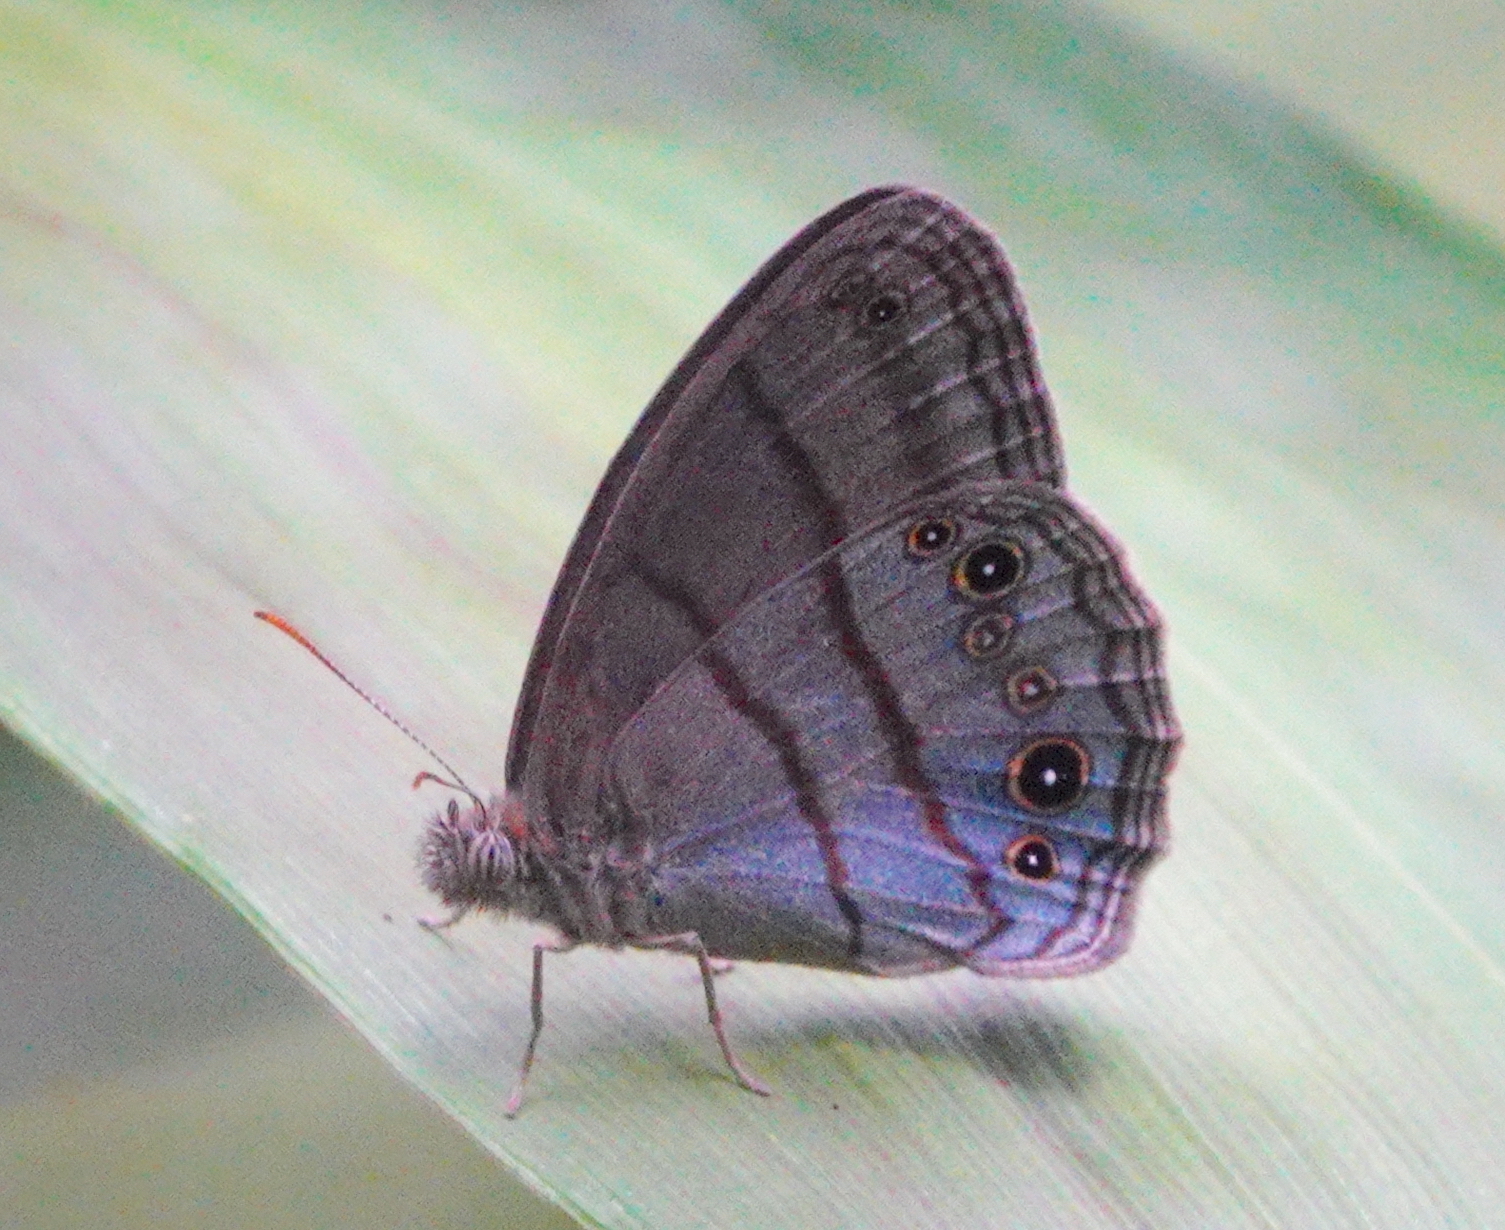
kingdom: Animalia
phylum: Arthropoda
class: Insecta
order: Lepidoptera
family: Nymphalidae
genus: Cisandina
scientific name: Cisandina
